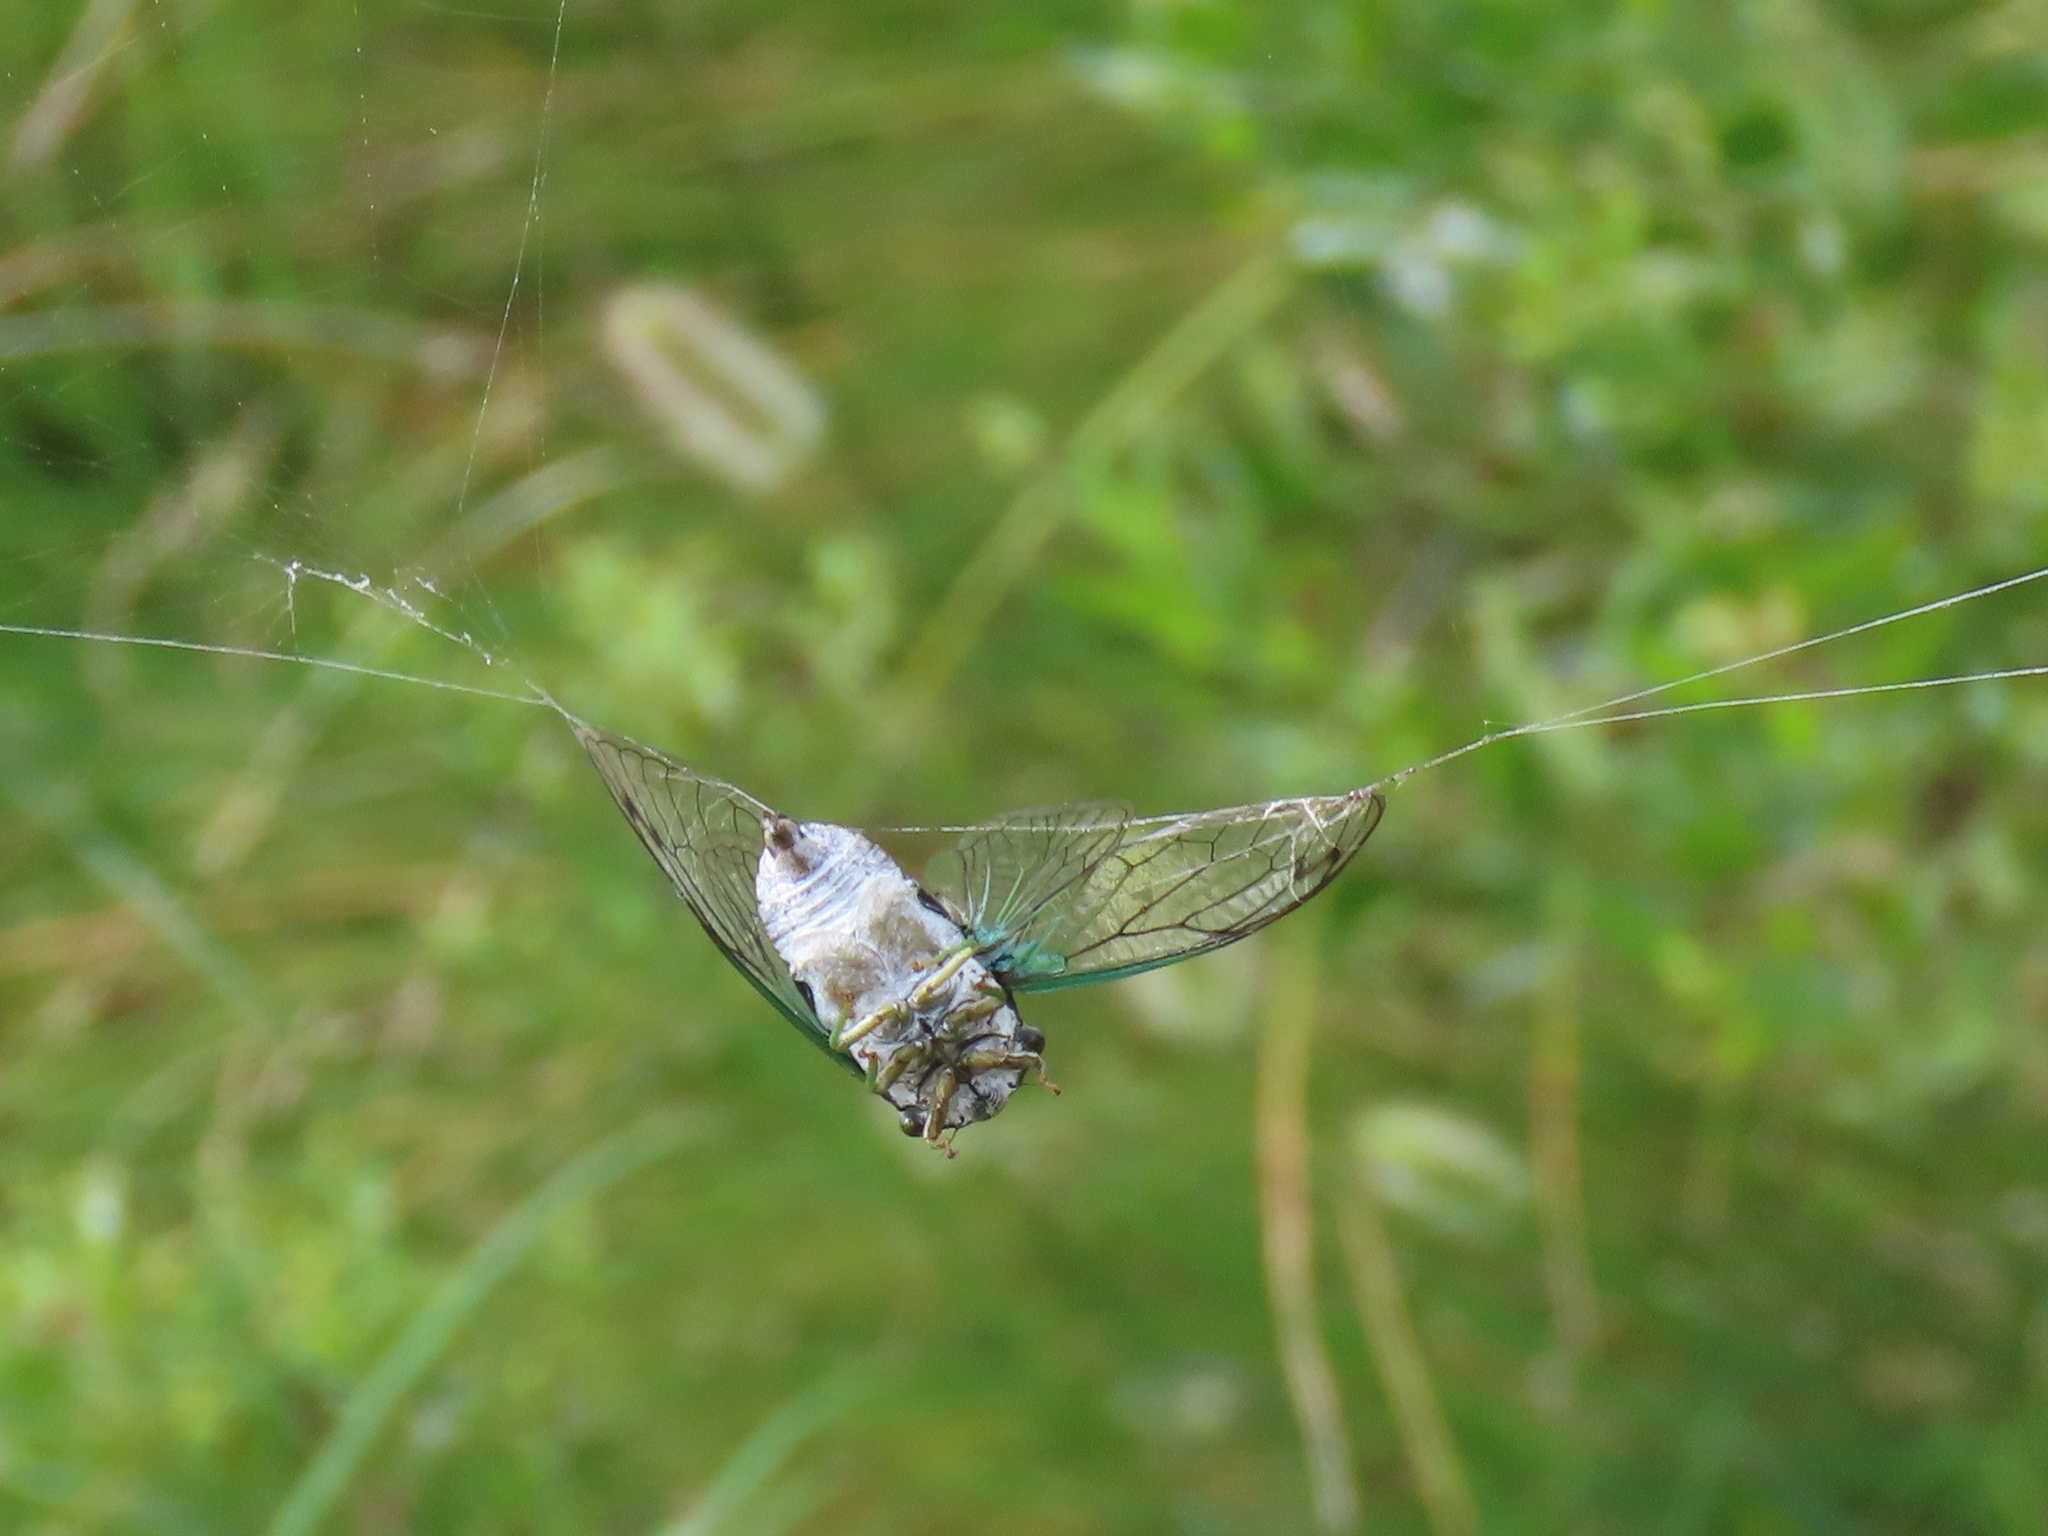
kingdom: Animalia
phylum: Arthropoda
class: Insecta
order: Hemiptera
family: Cicadidae
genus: Neotibicen
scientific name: Neotibicen tibicen
